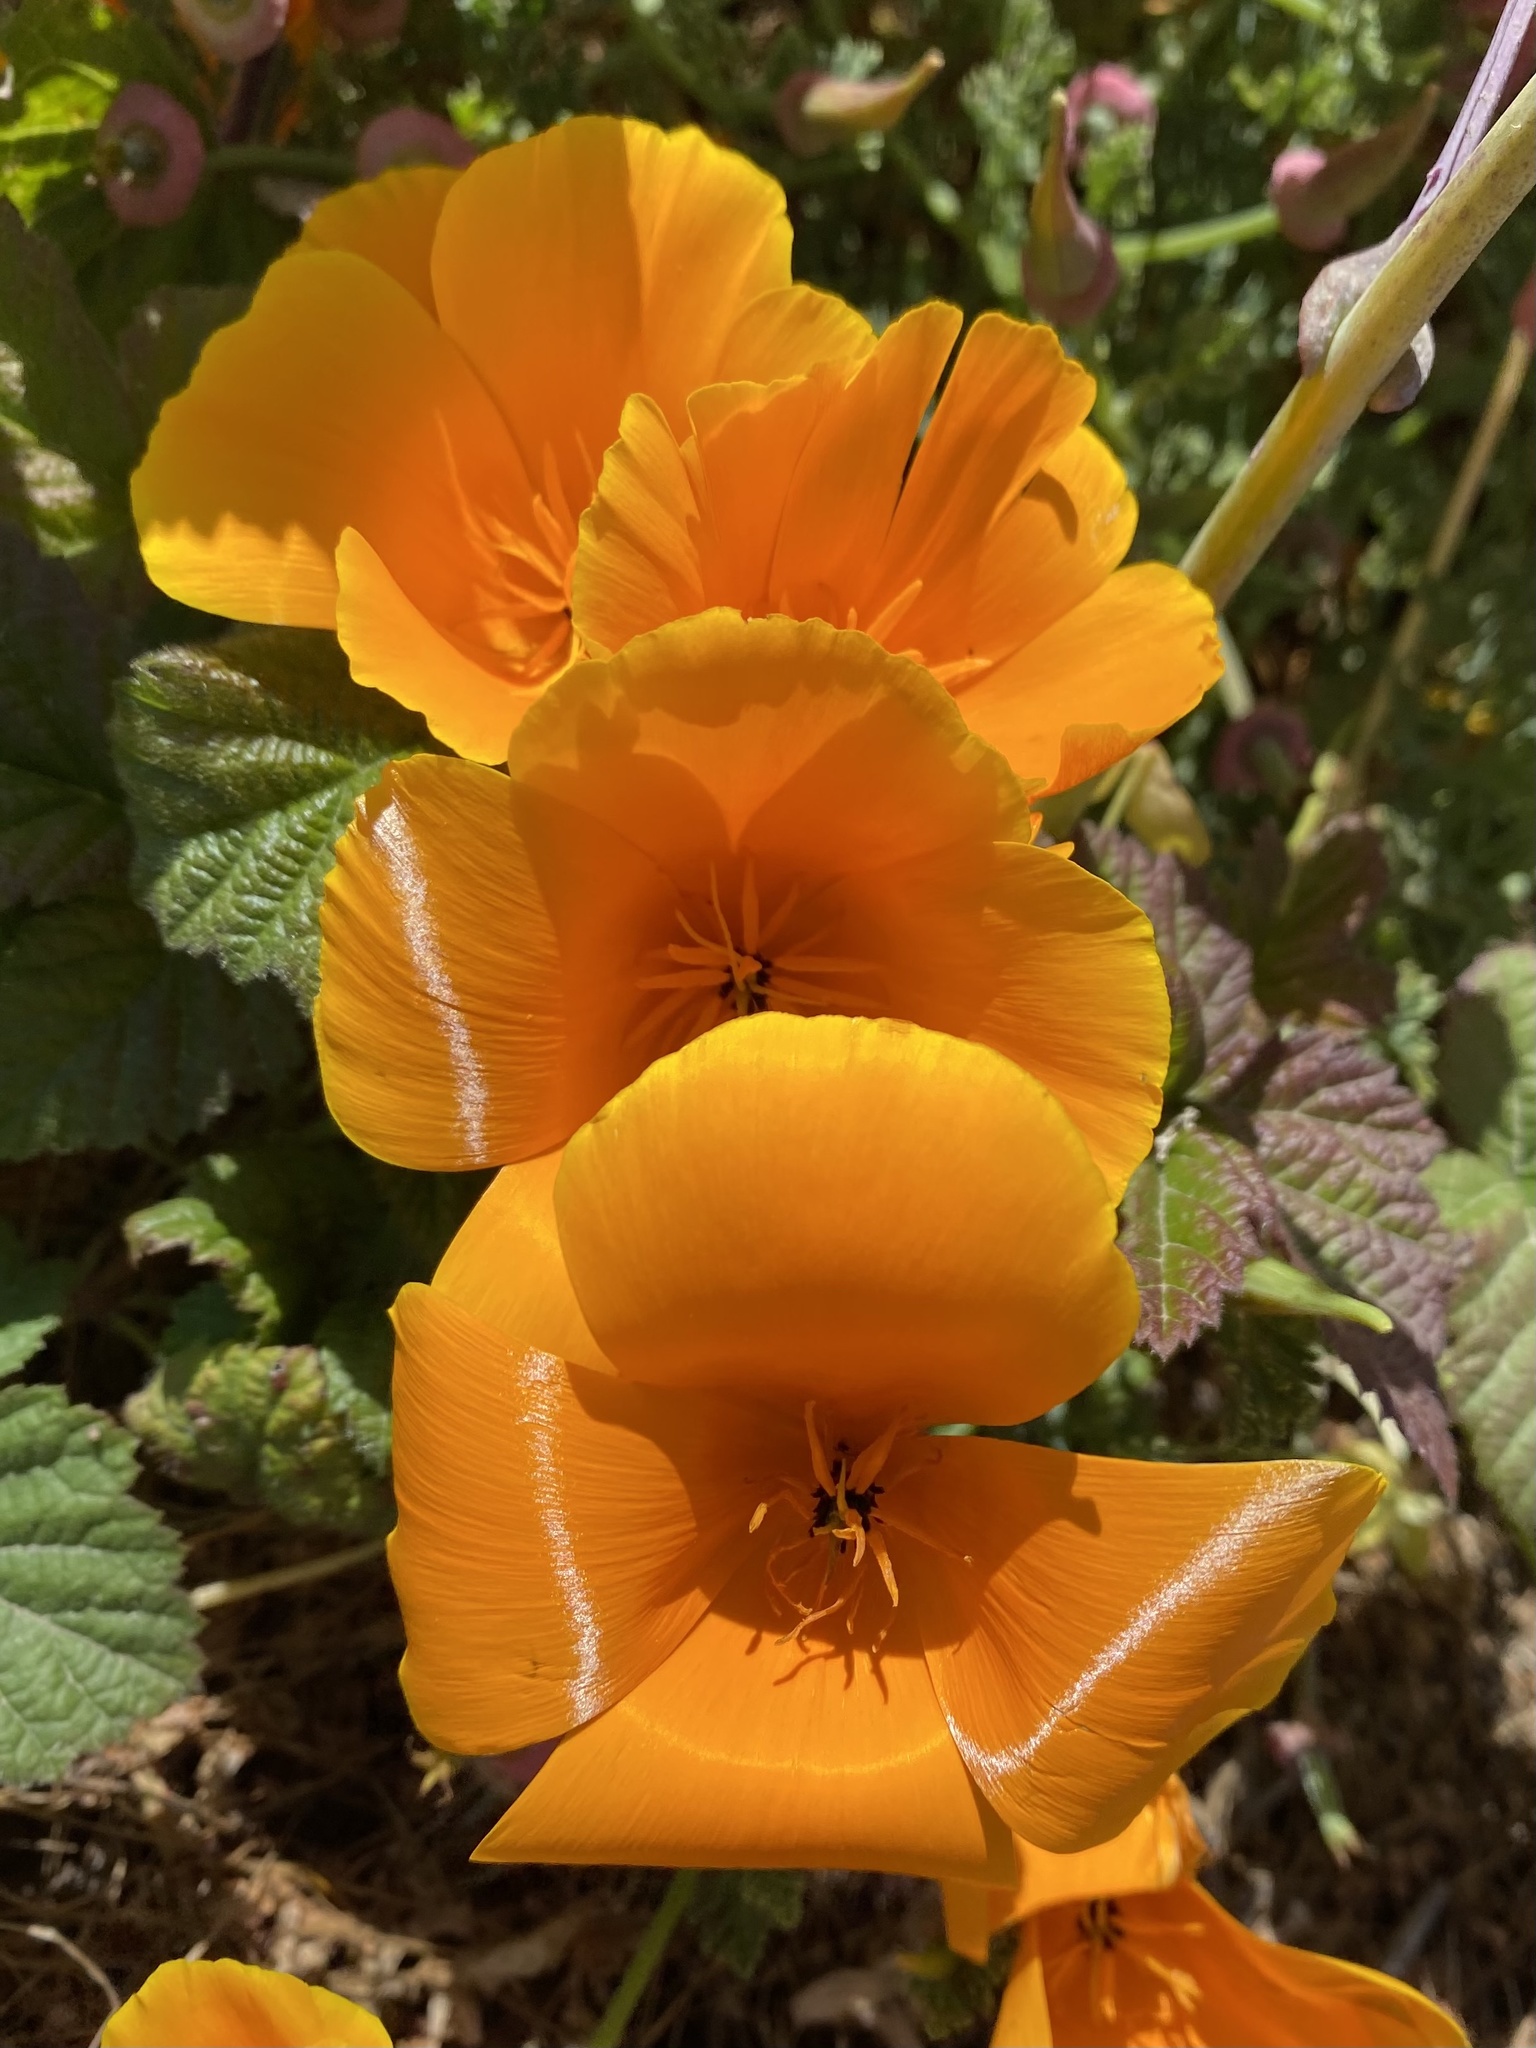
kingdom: Plantae
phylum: Tracheophyta
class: Magnoliopsida
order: Ranunculales
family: Papaveraceae
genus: Eschscholzia
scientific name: Eschscholzia californica
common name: California poppy
